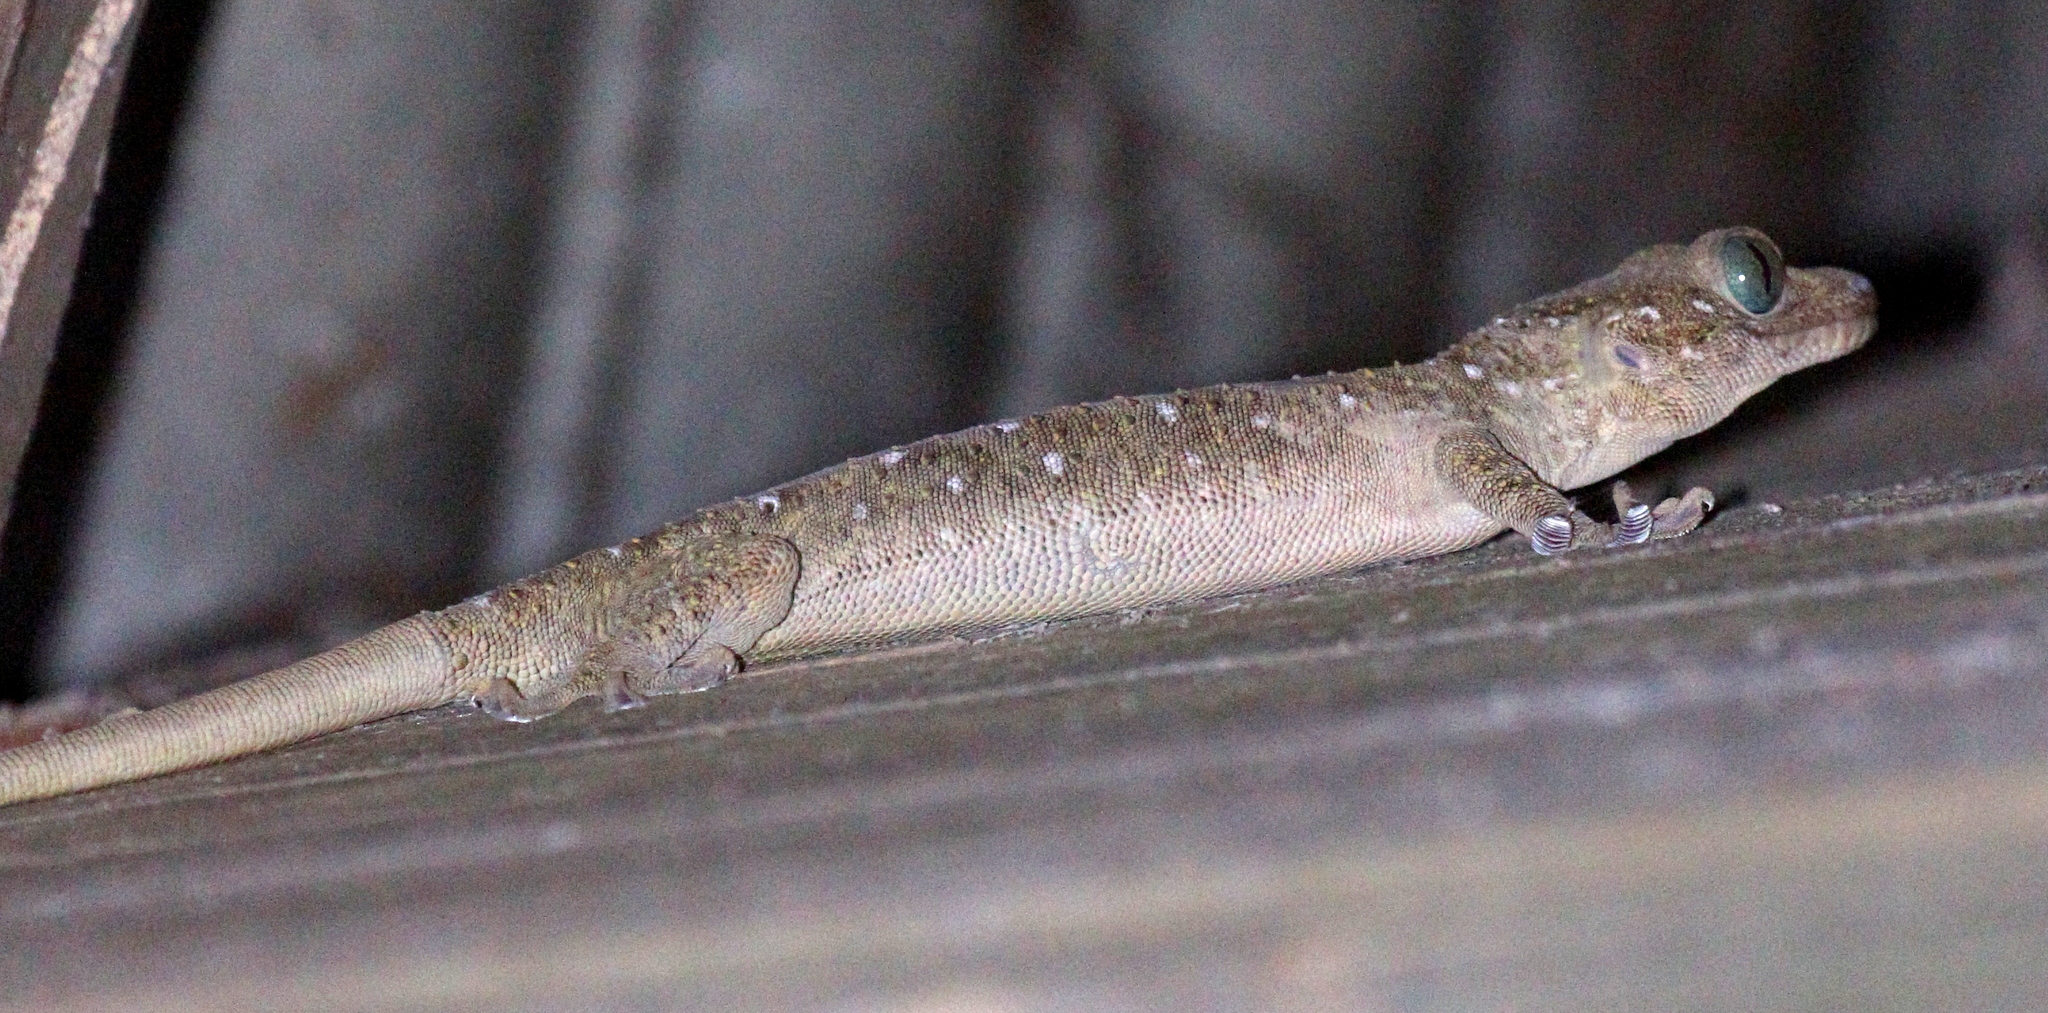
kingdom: Animalia
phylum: Chordata
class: Squamata
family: Gekkonidae
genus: Gekko
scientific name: Gekko hulk
